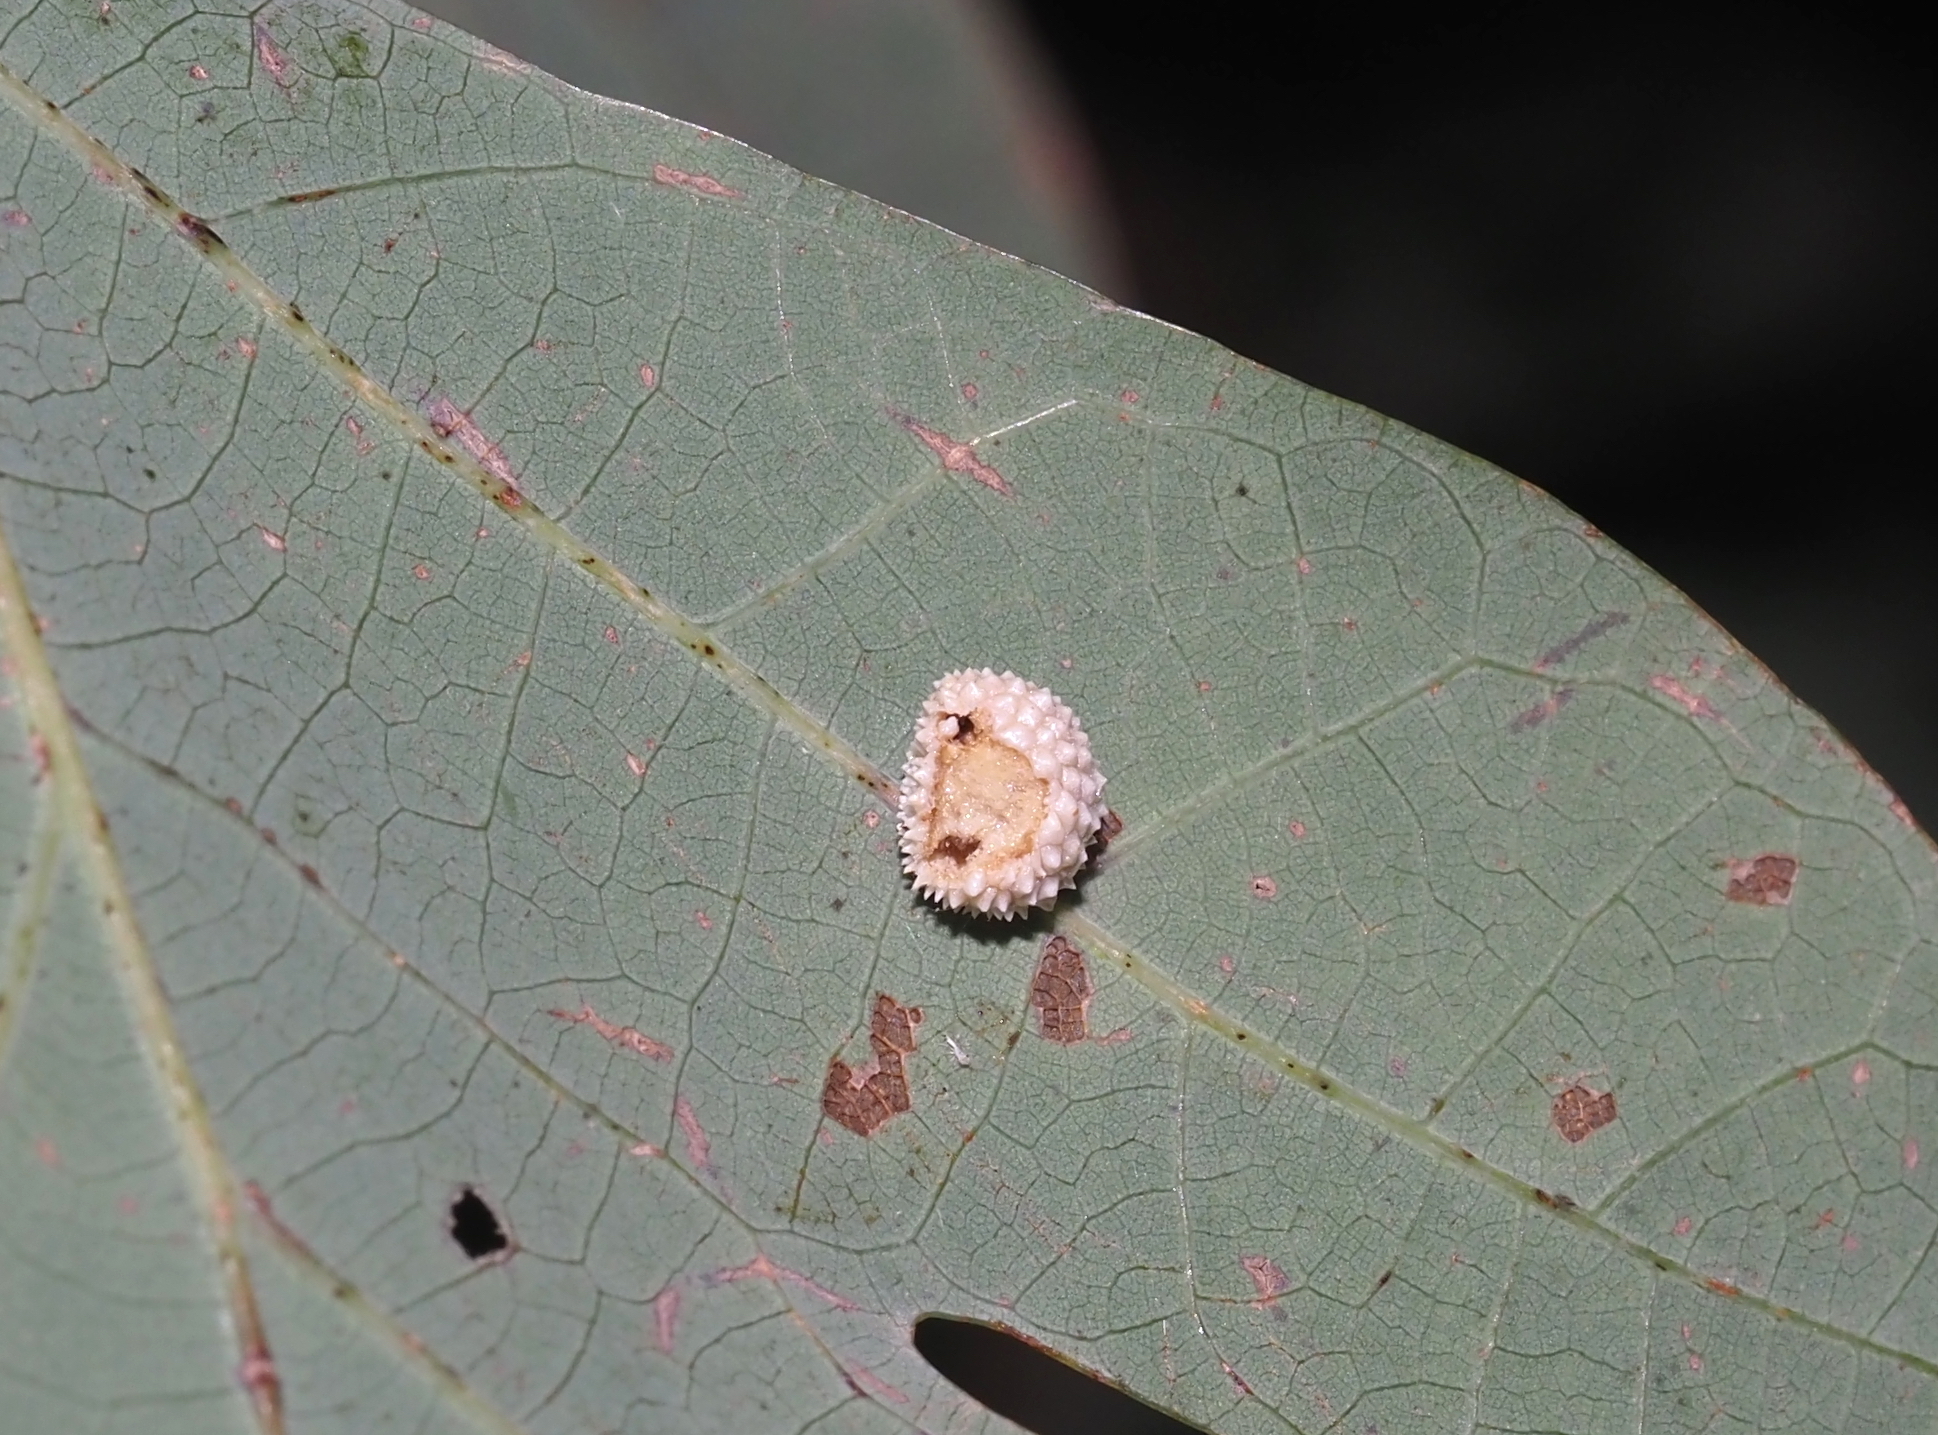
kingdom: Animalia
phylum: Arthropoda
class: Insecta
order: Hymenoptera
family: Cynipidae
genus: Acraspis
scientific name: Acraspis
